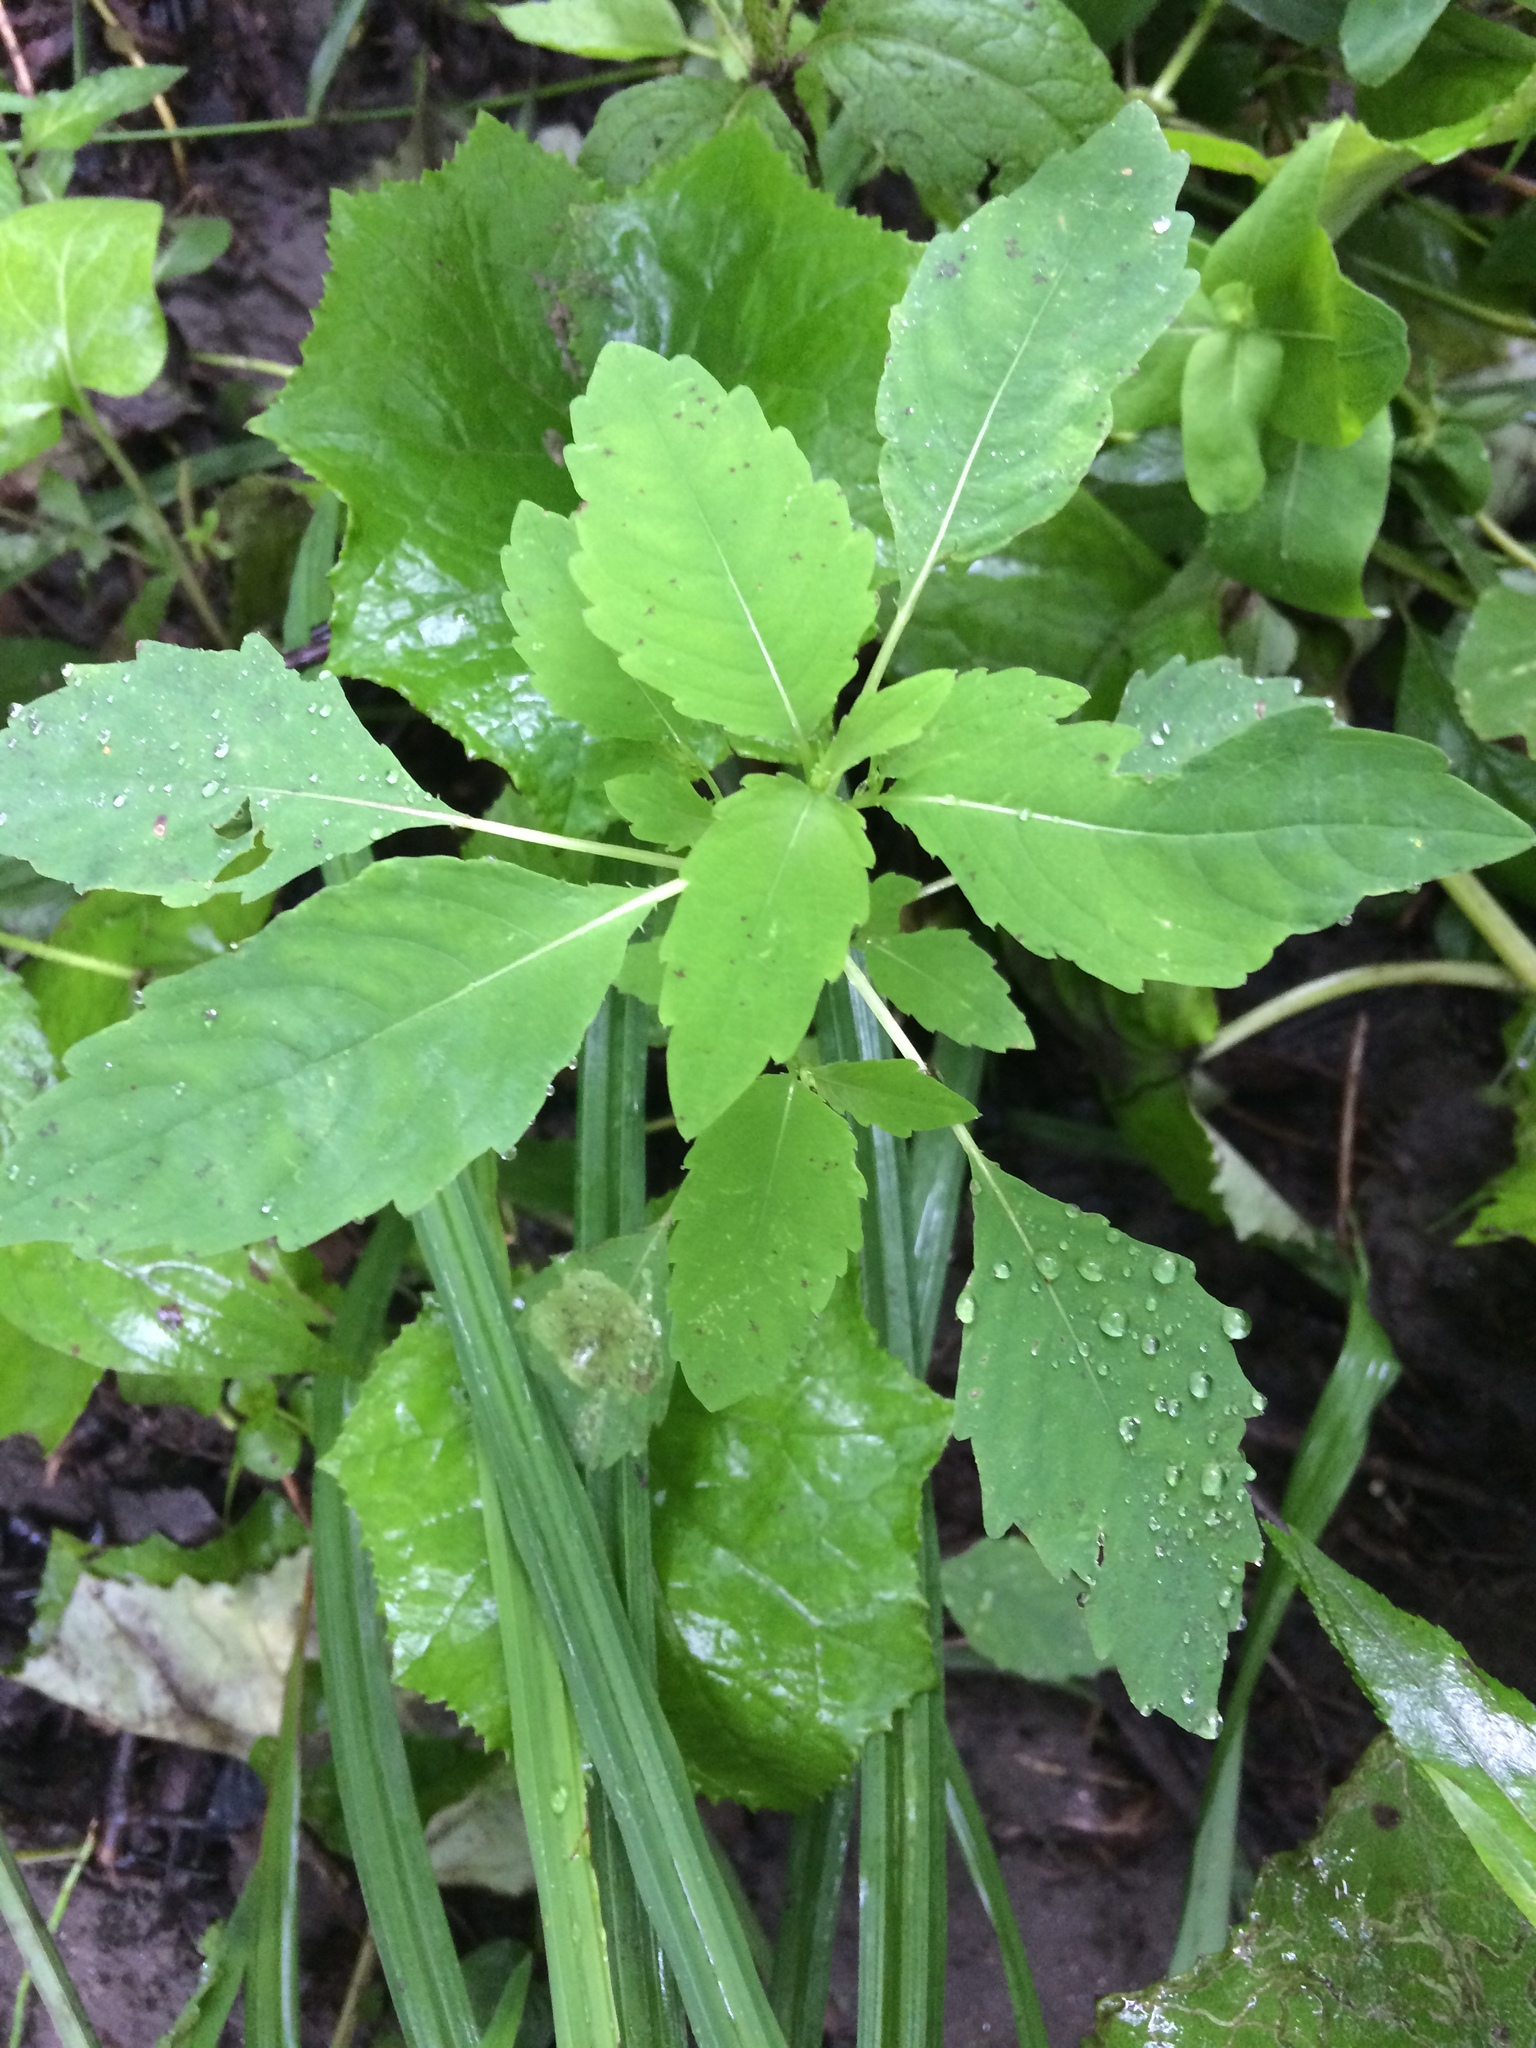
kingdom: Plantae
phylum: Tracheophyta
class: Magnoliopsida
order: Ericales
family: Balsaminaceae
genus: Impatiens
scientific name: Impatiens capensis
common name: Orange balsam
